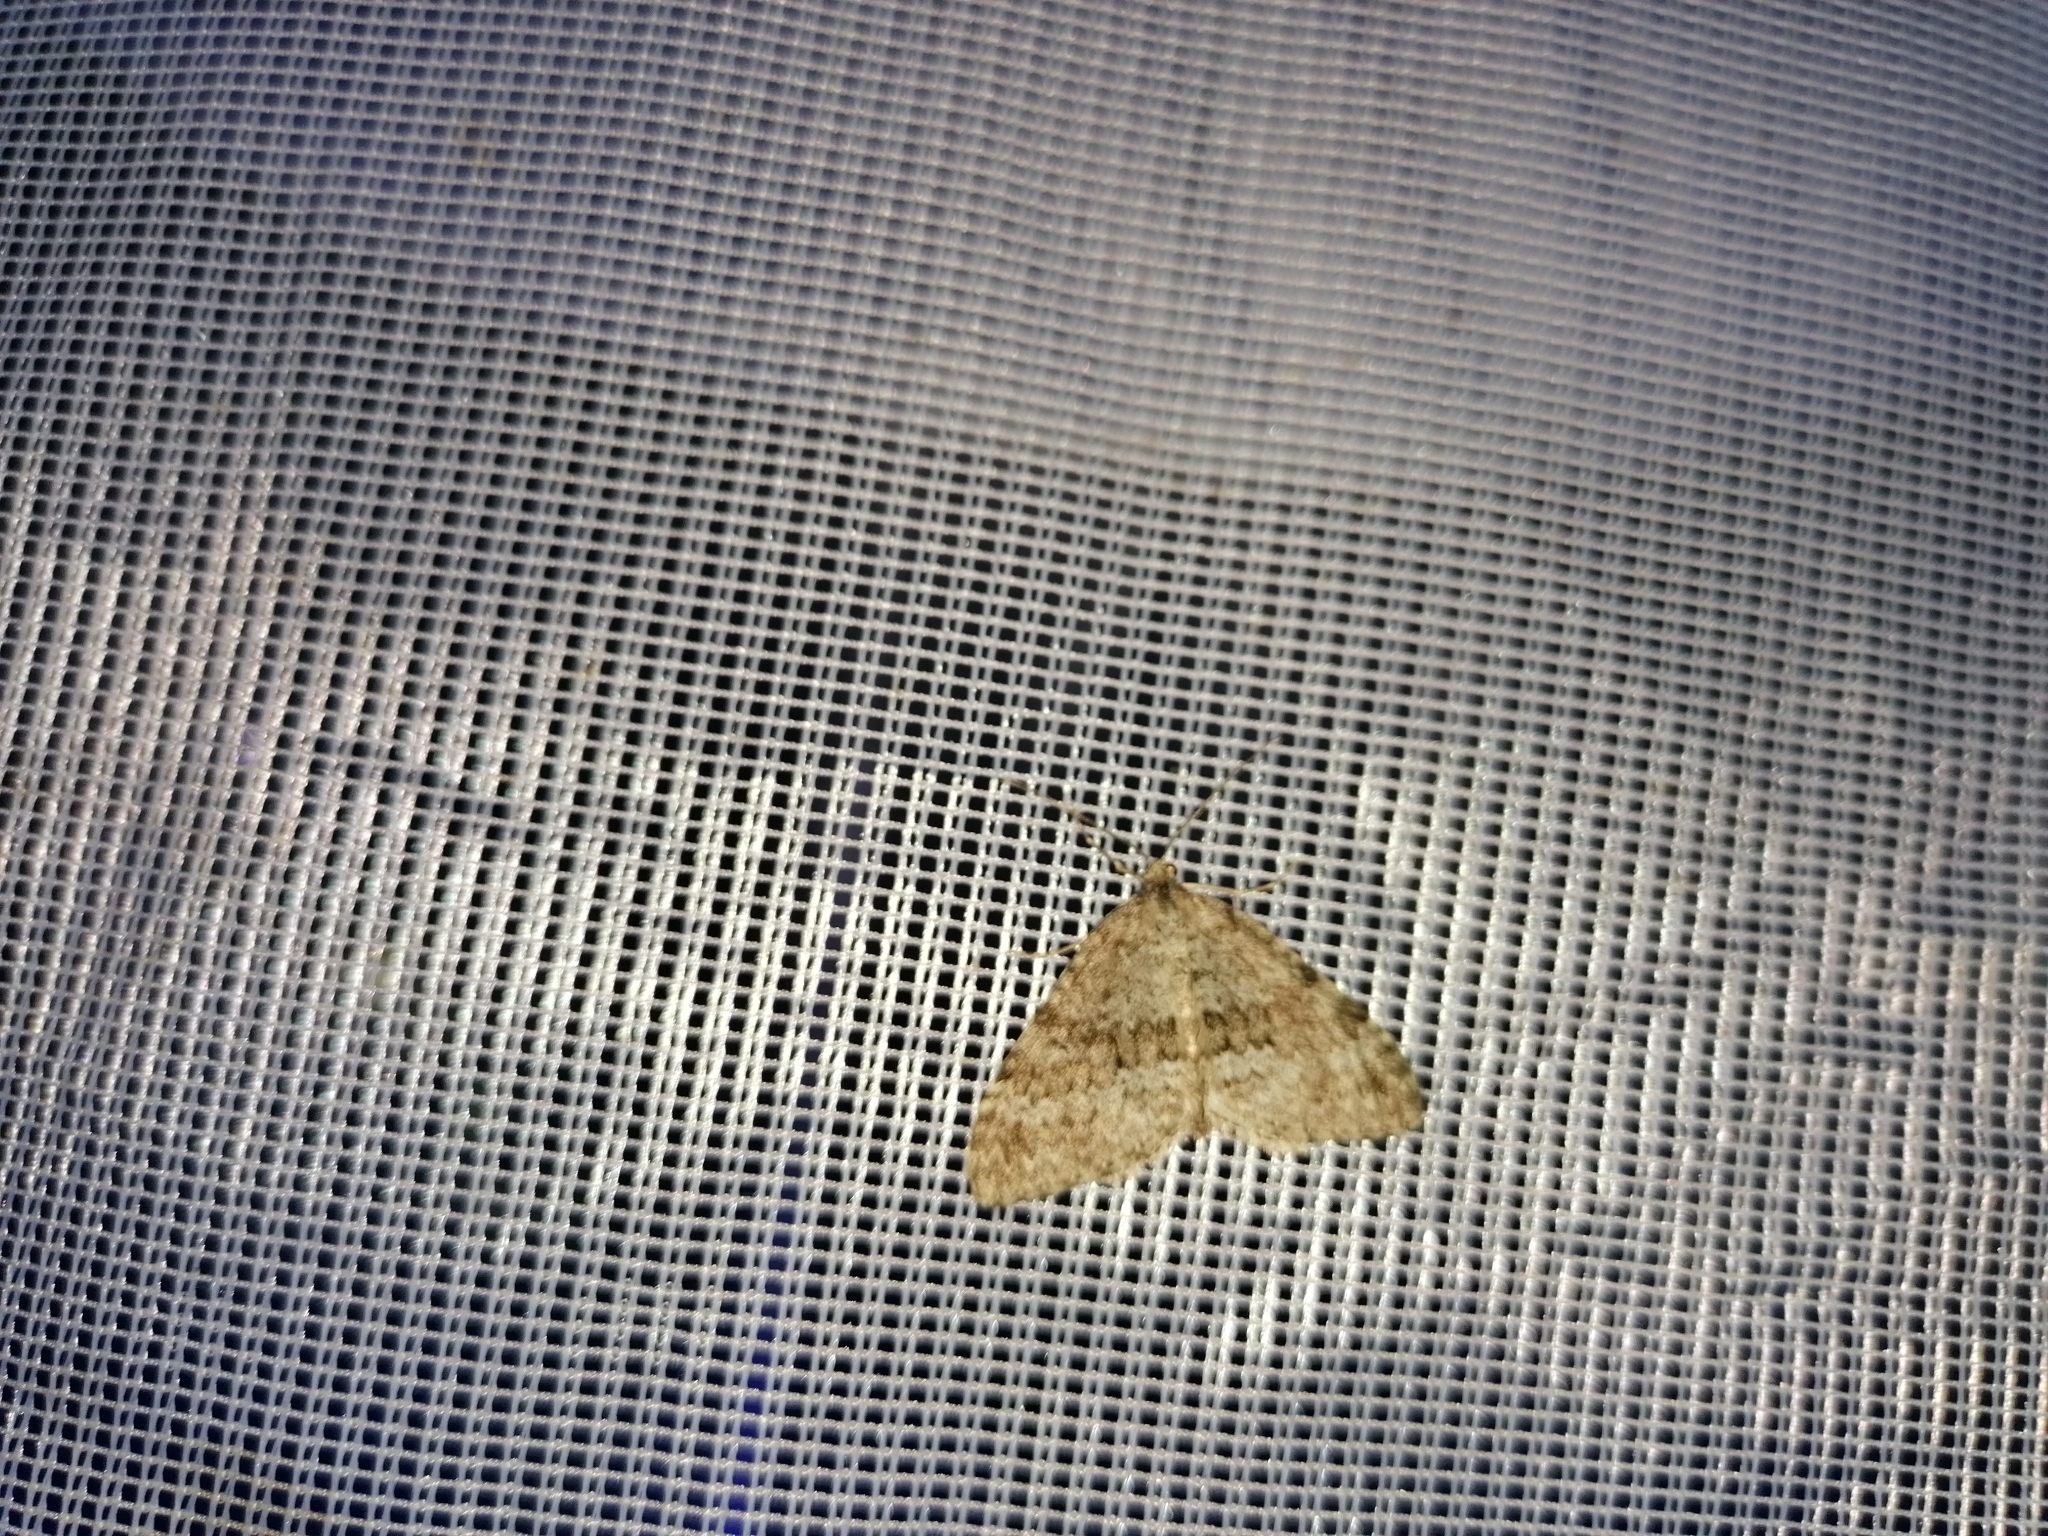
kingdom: Animalia
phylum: Arthropoda
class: Insecta
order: Lepidoptera
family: Geometridae
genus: Entephria
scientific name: Entephria caesiata
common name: Grey mountain moth
